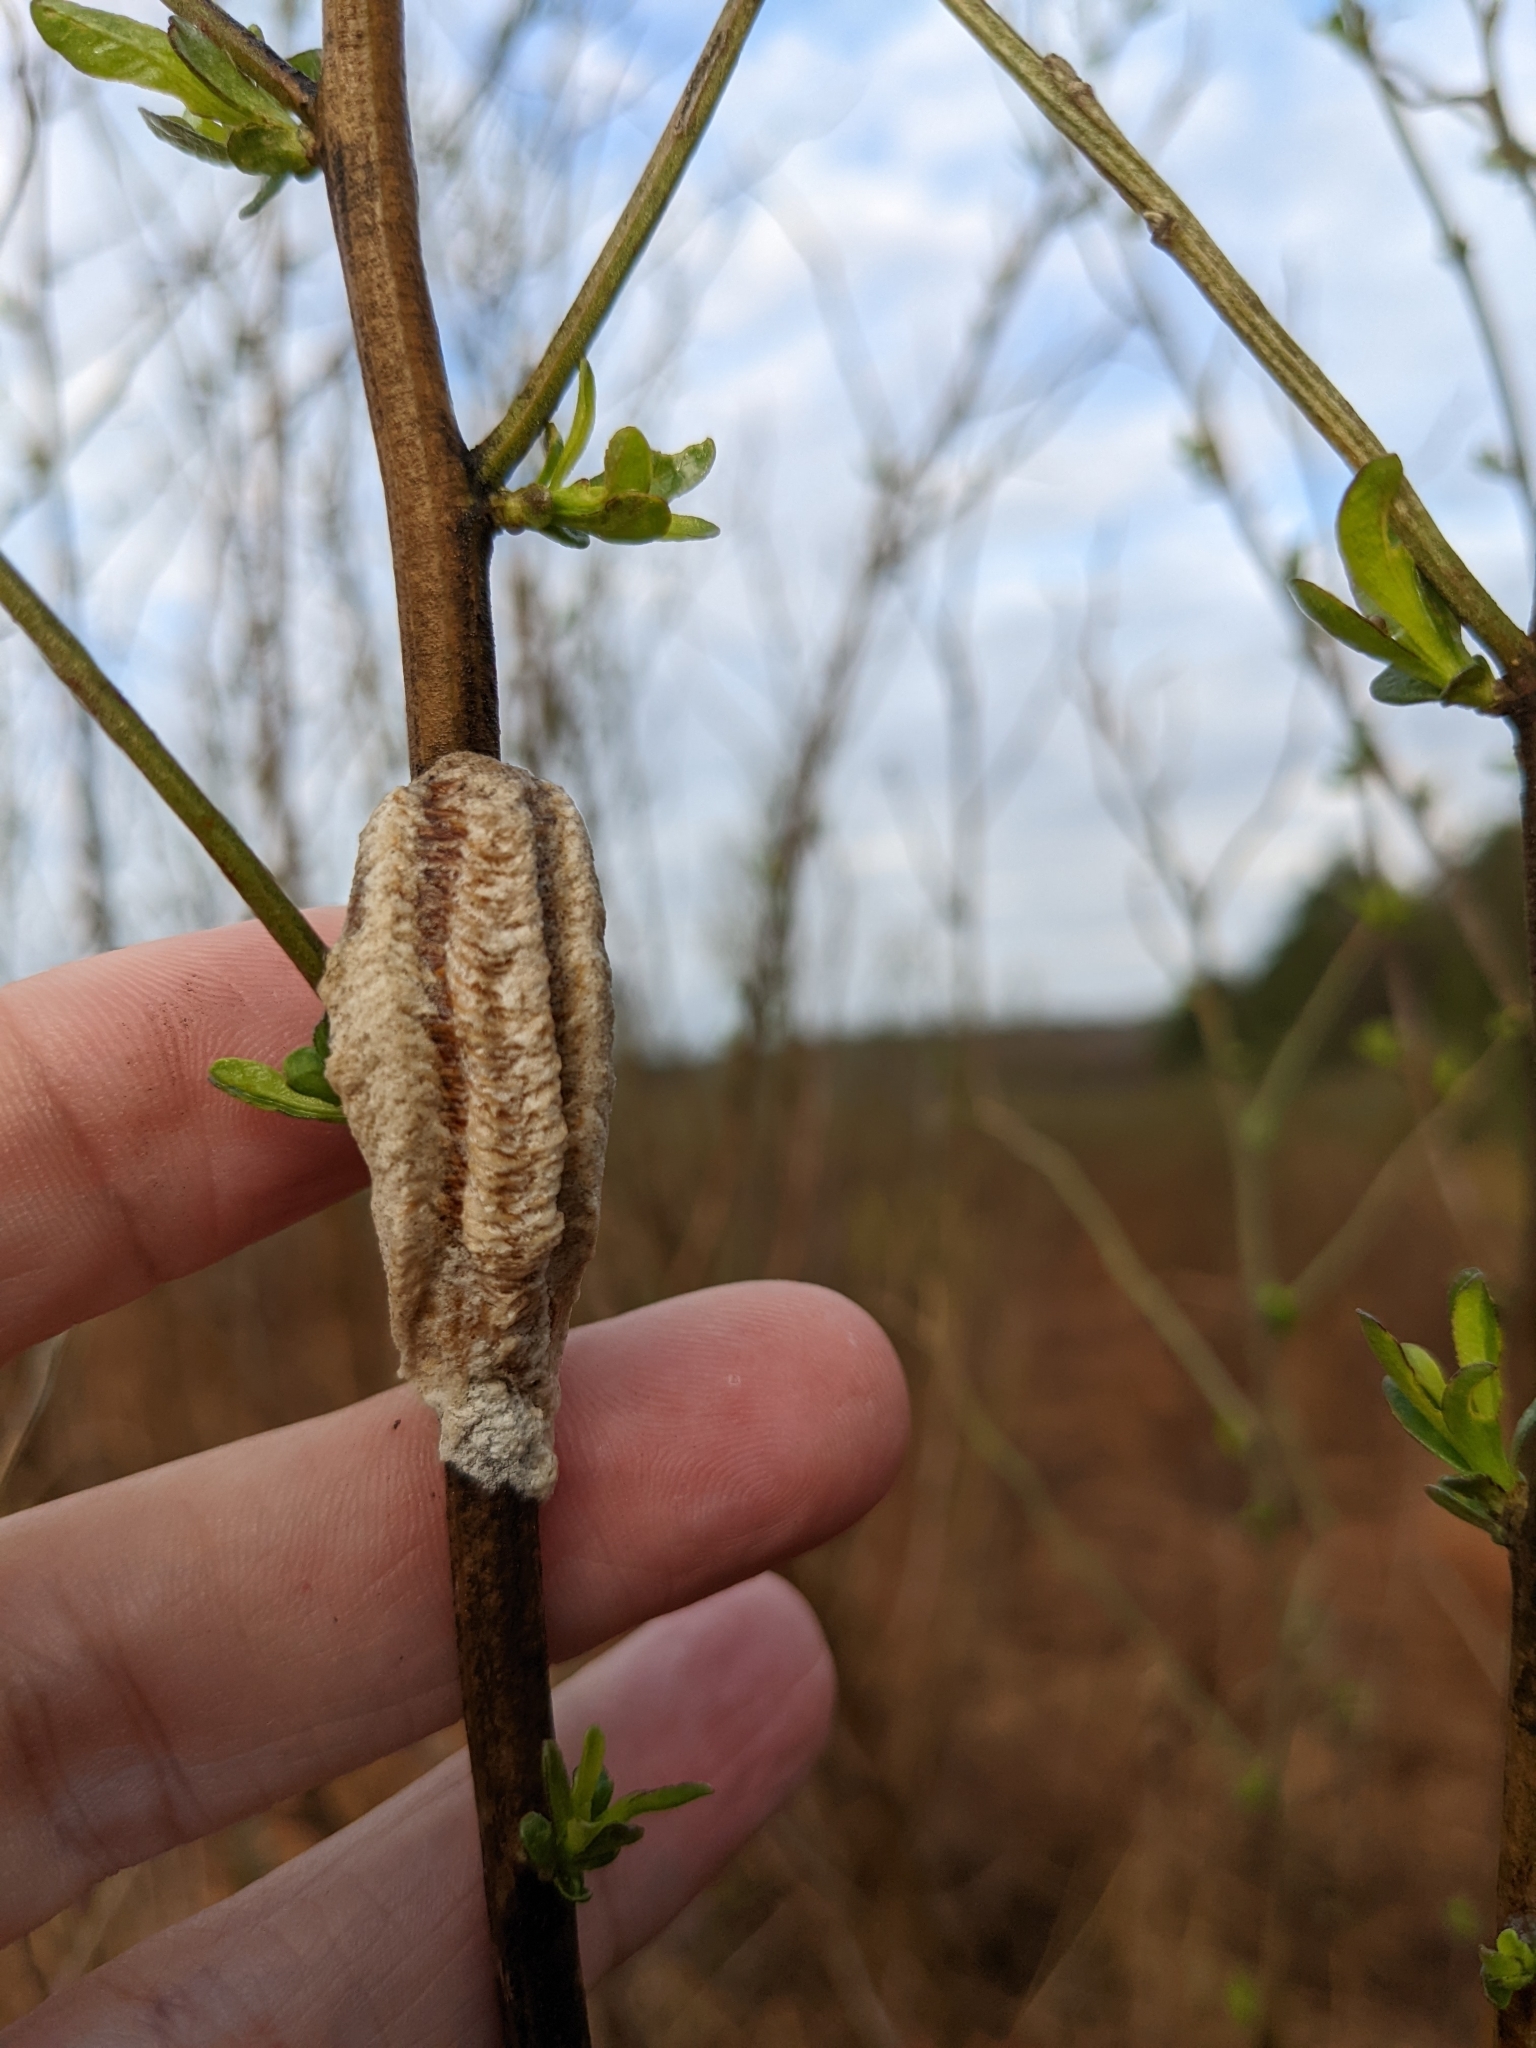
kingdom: Animalia
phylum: Arthropoda
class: Insecta
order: Mantodea
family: Mantidae
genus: Tenodera
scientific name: Tenodera angustipennis
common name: Asian mantis
